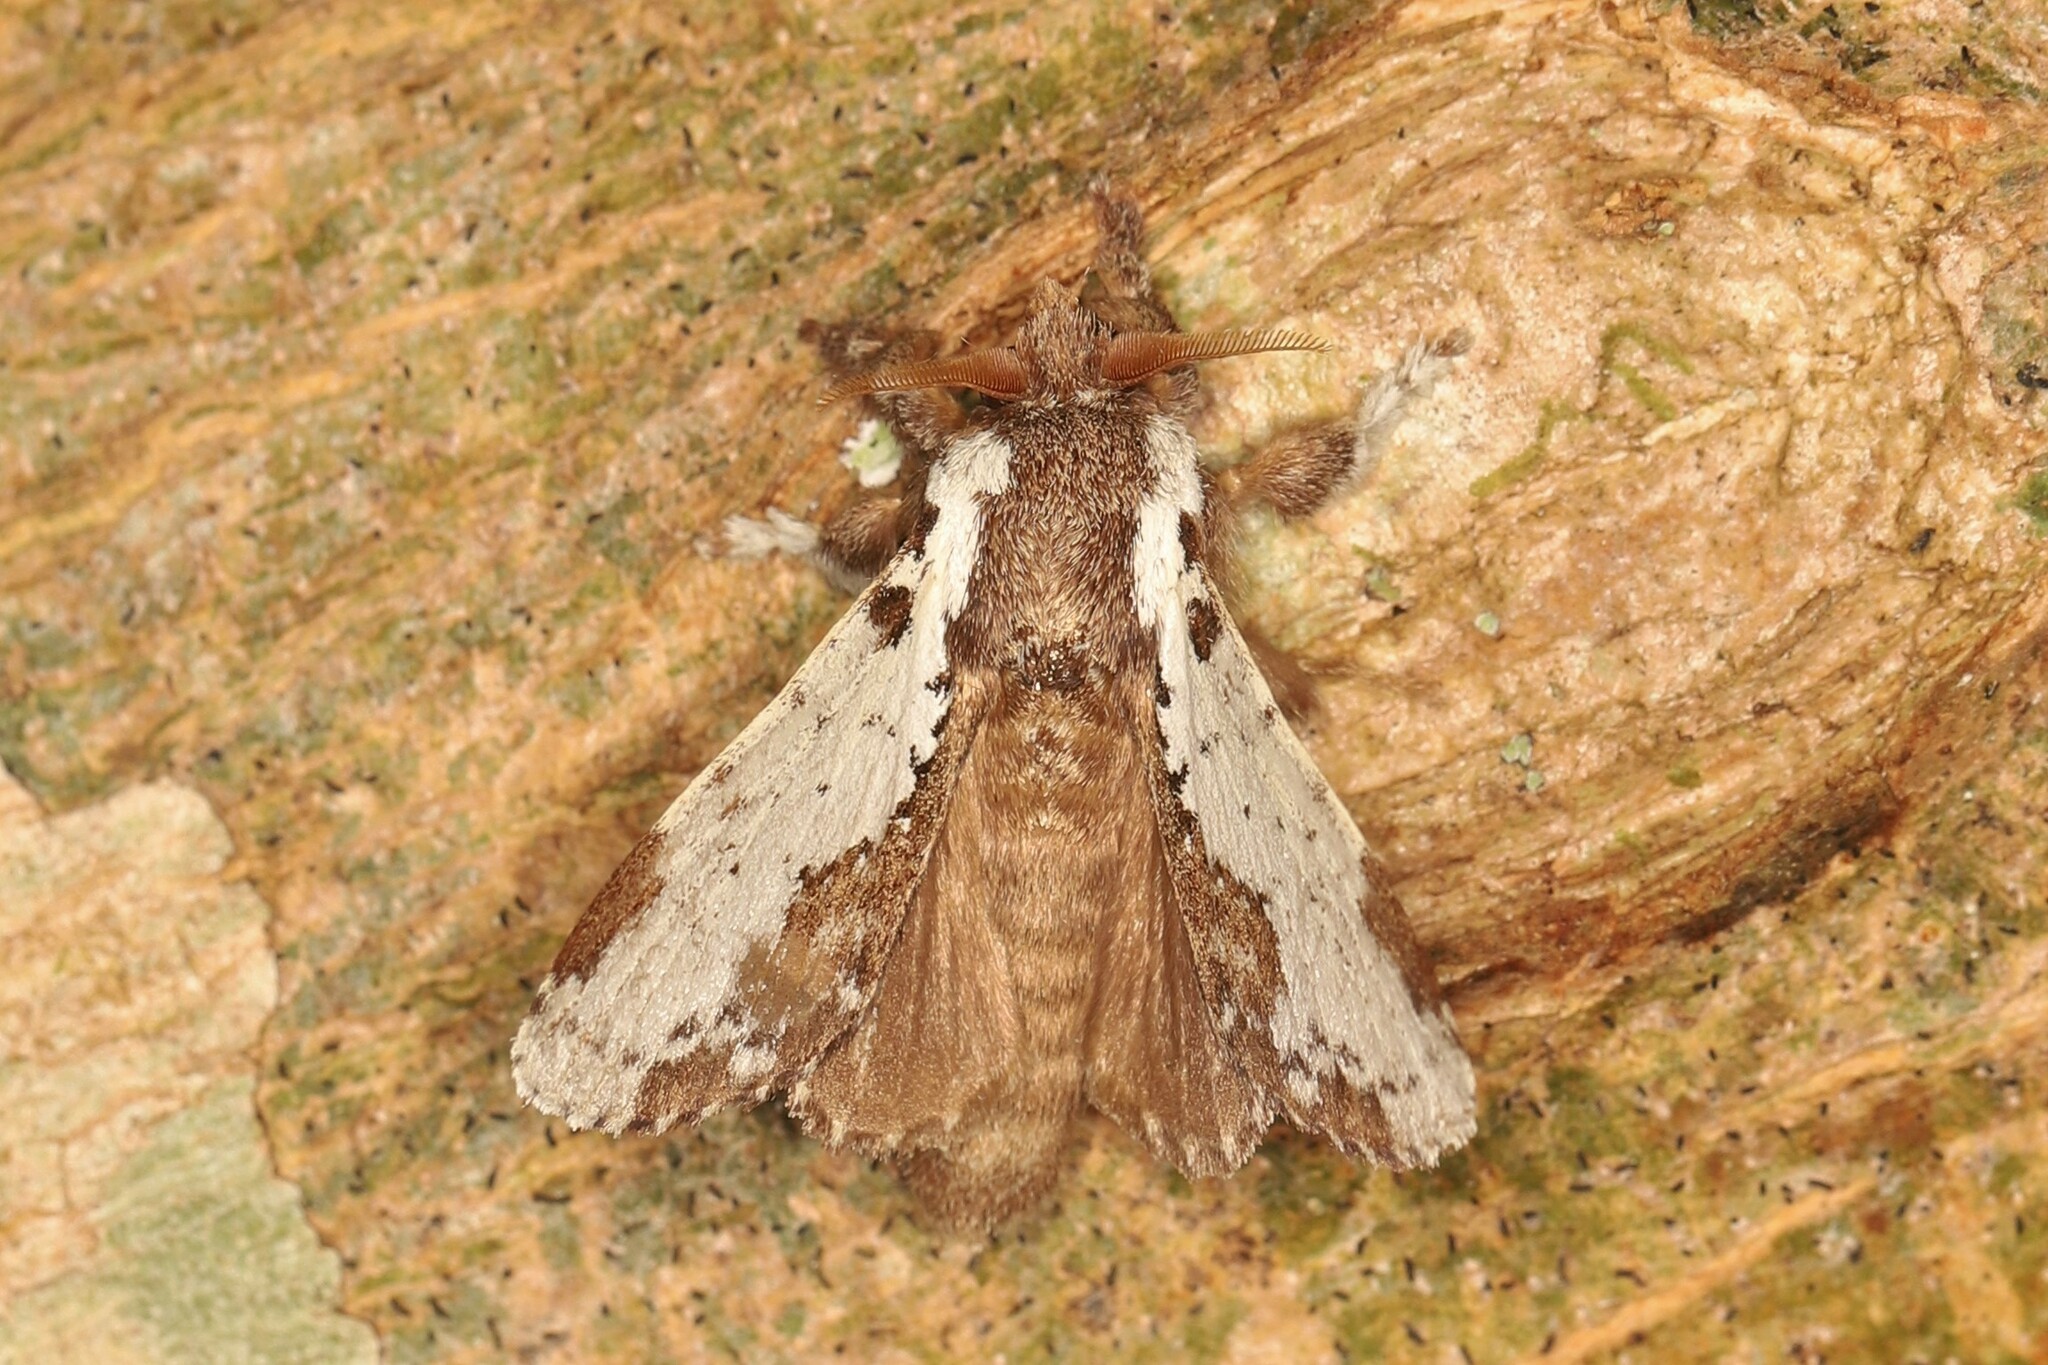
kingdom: Animalia
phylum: Arthropoda
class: Insecta
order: Lepidoptera
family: Lasiocampidae
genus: Euglyphis
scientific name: Euglyphis obliterata
